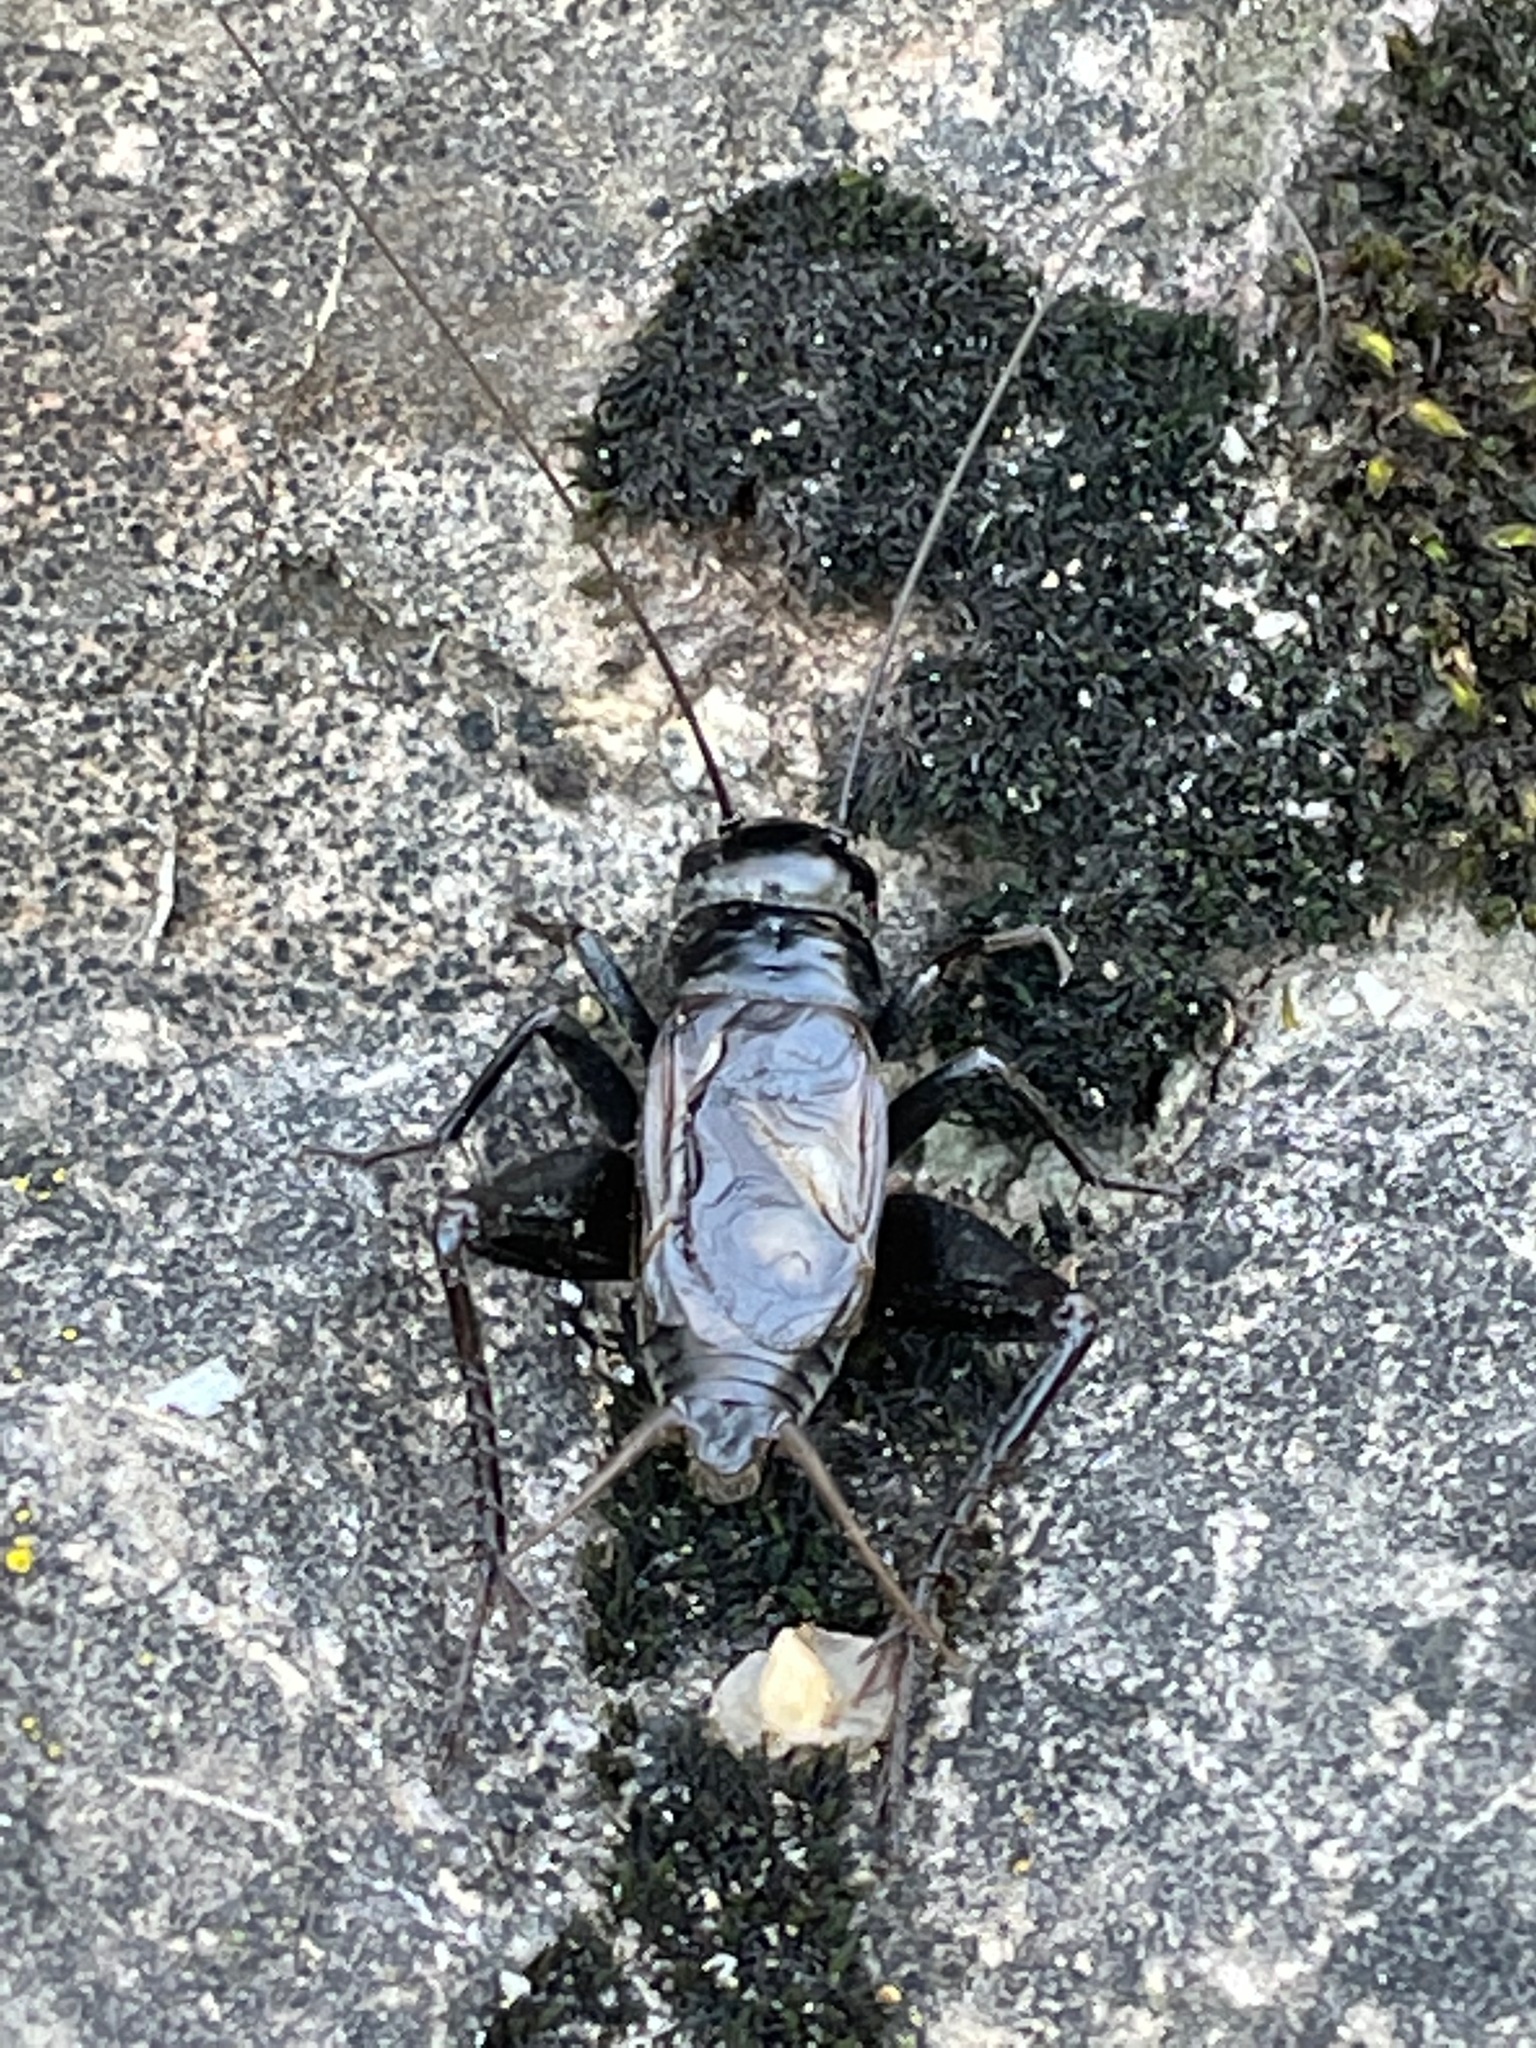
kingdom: Animalia
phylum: Arthropoda
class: Insecta
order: Orthoptera
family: Gryllidae
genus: Gryllus
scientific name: Gryllus pennsylvanicus
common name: Fall field cricket
